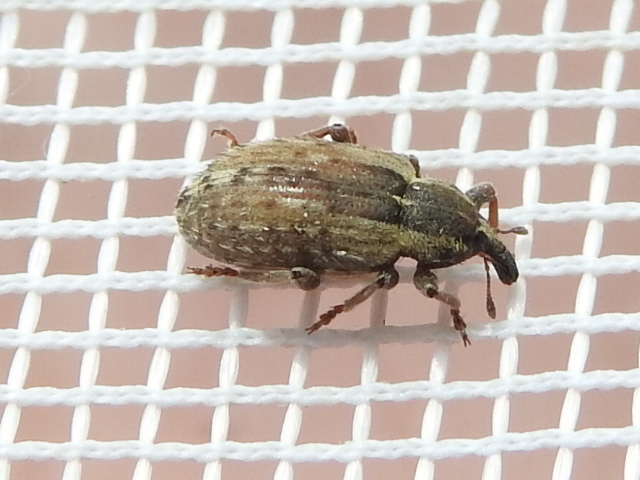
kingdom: Animalia
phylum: Arthropoda
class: Insecta
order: Coleoptera
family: Curculionidae
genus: Hypera
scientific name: Hypera postica
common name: Weevil
